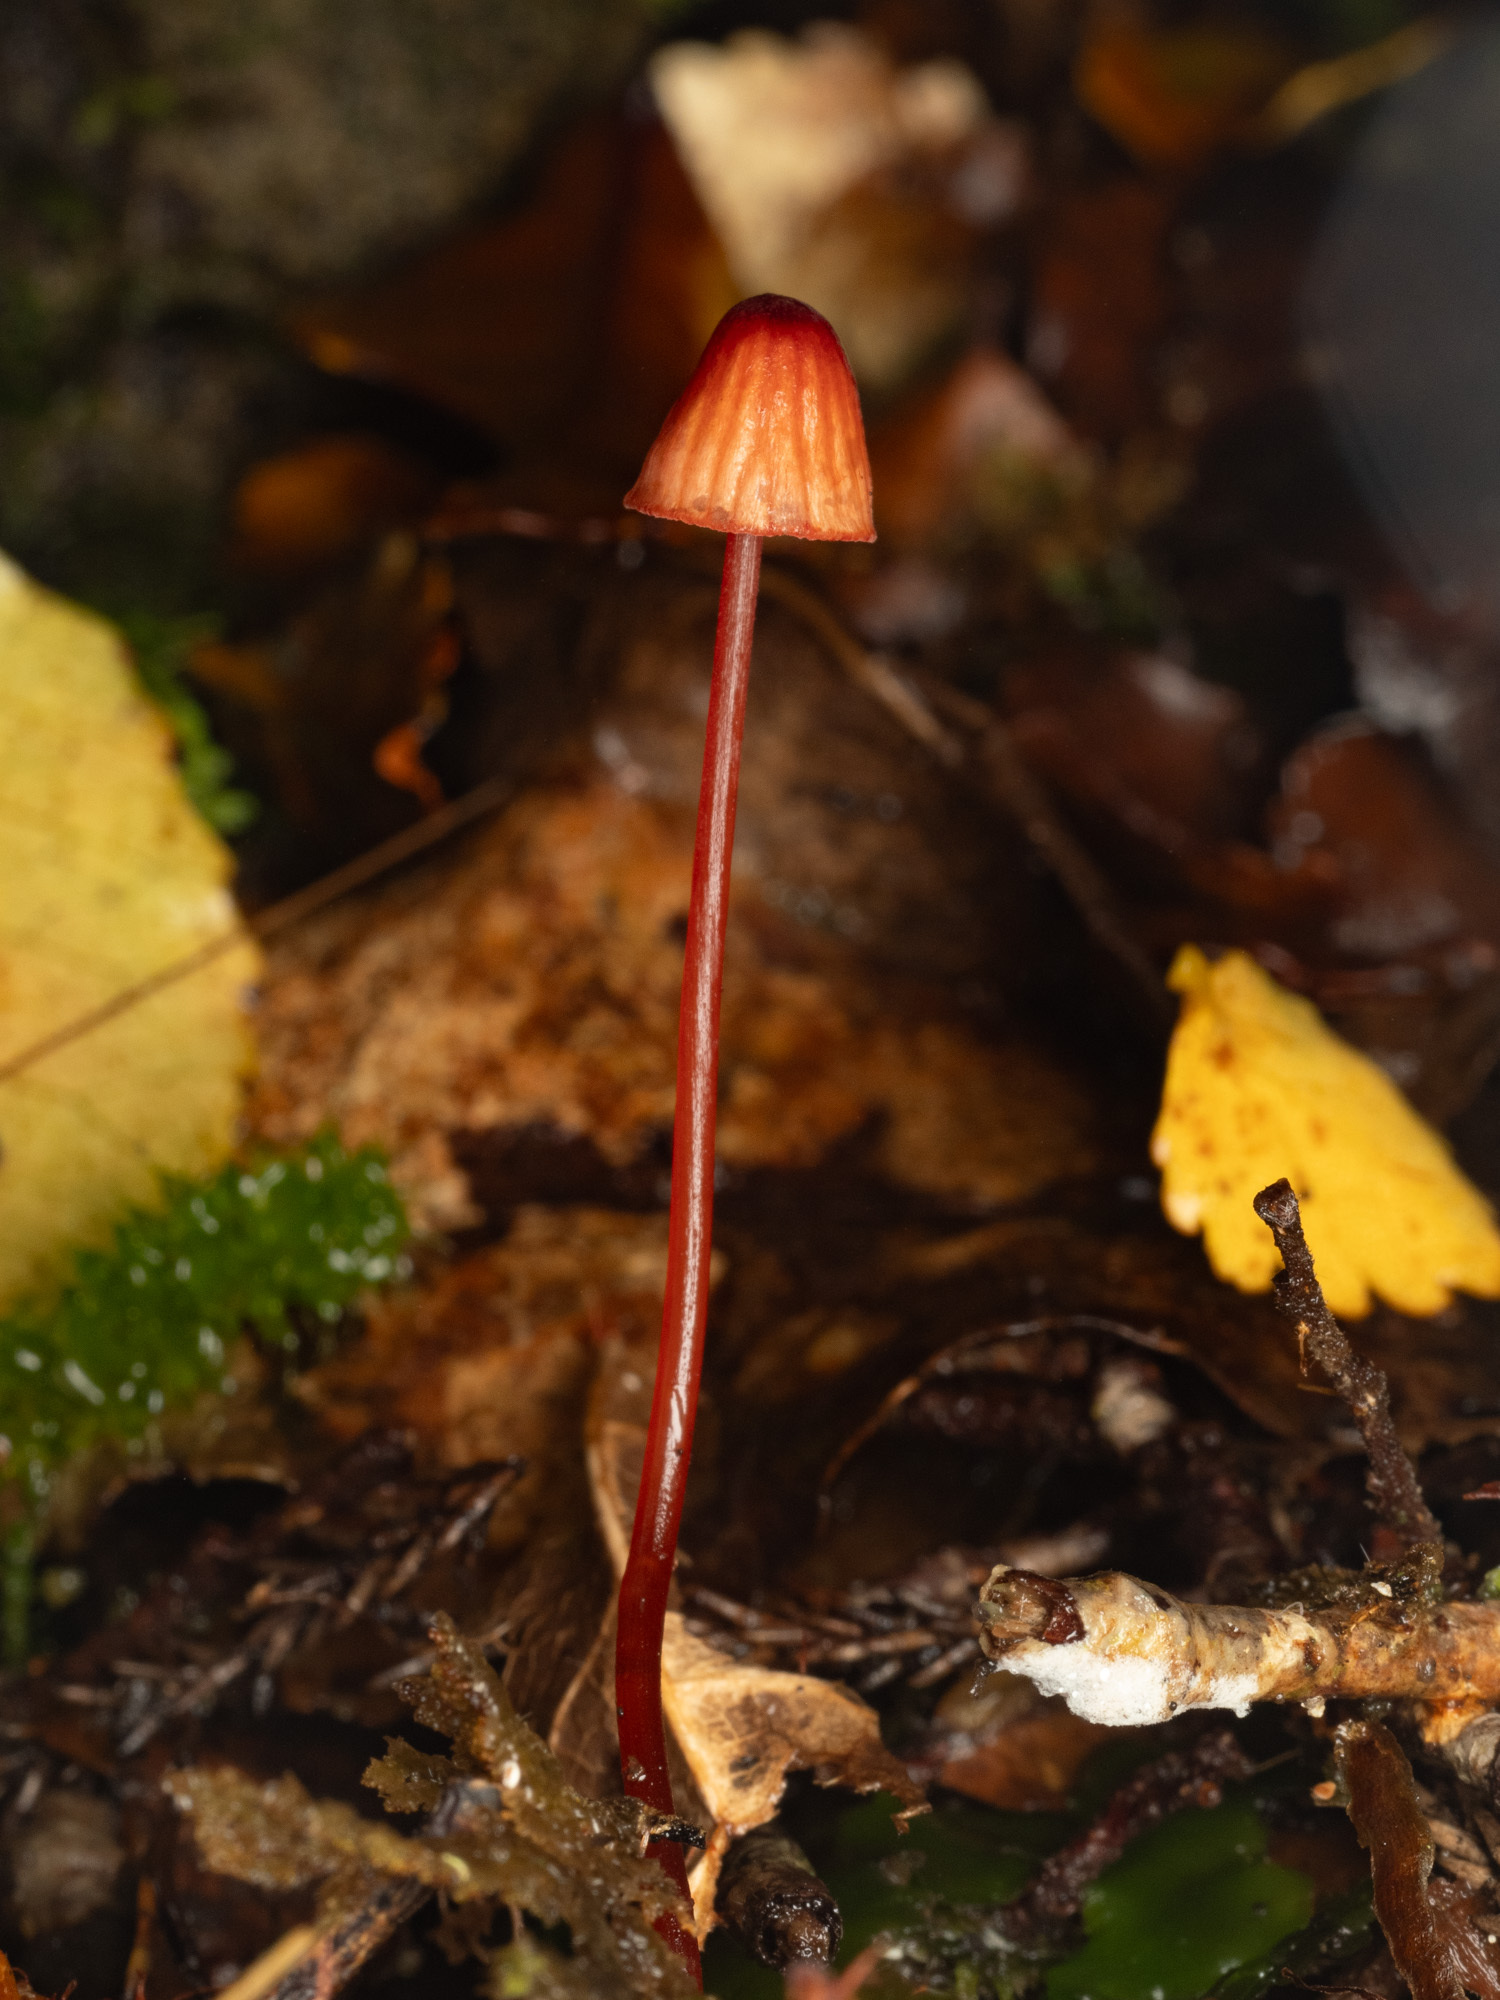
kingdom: Fungi
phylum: Basidiomycota
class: Agaricomycetes
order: Agaricales
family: Mycenaceae
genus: Mycena
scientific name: Mycena ura
